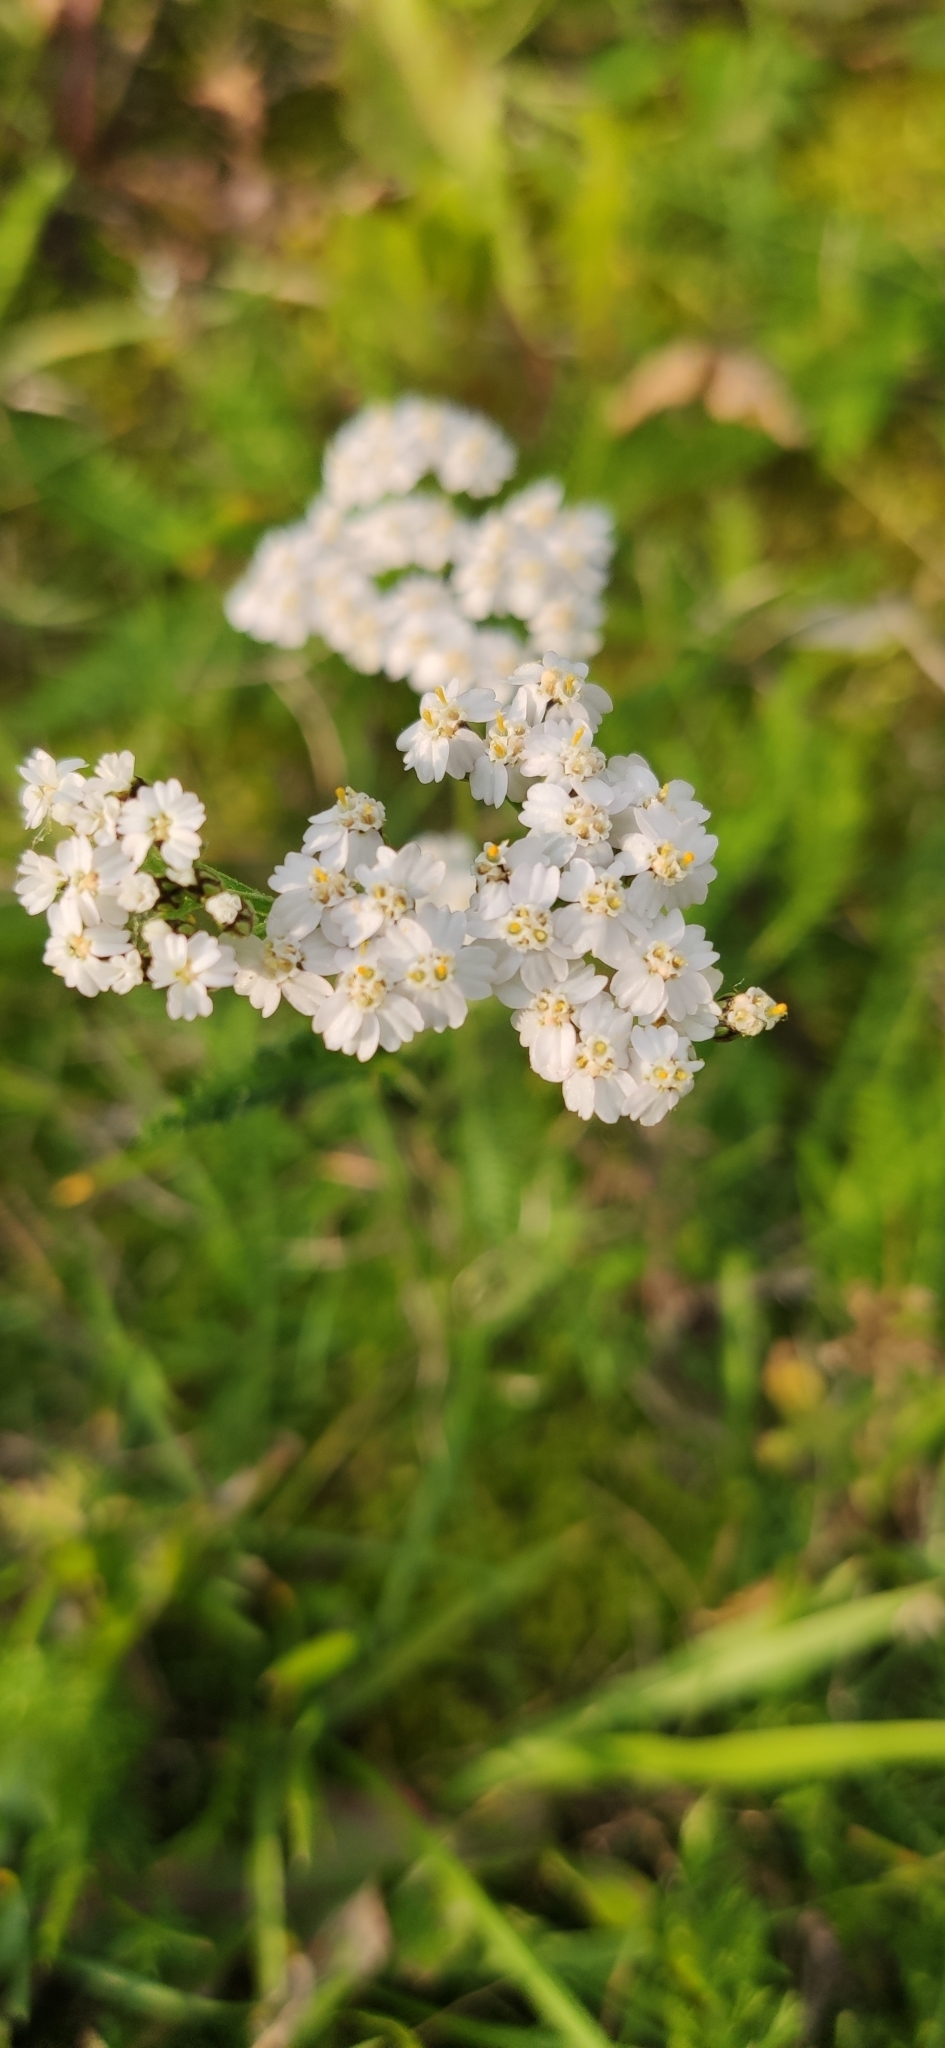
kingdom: Plantae
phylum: Tracheophyta
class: Magnoliopsida
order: Asterales
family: Asteraceae
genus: Achillea
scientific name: Achillea millefolium
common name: Yarrow
